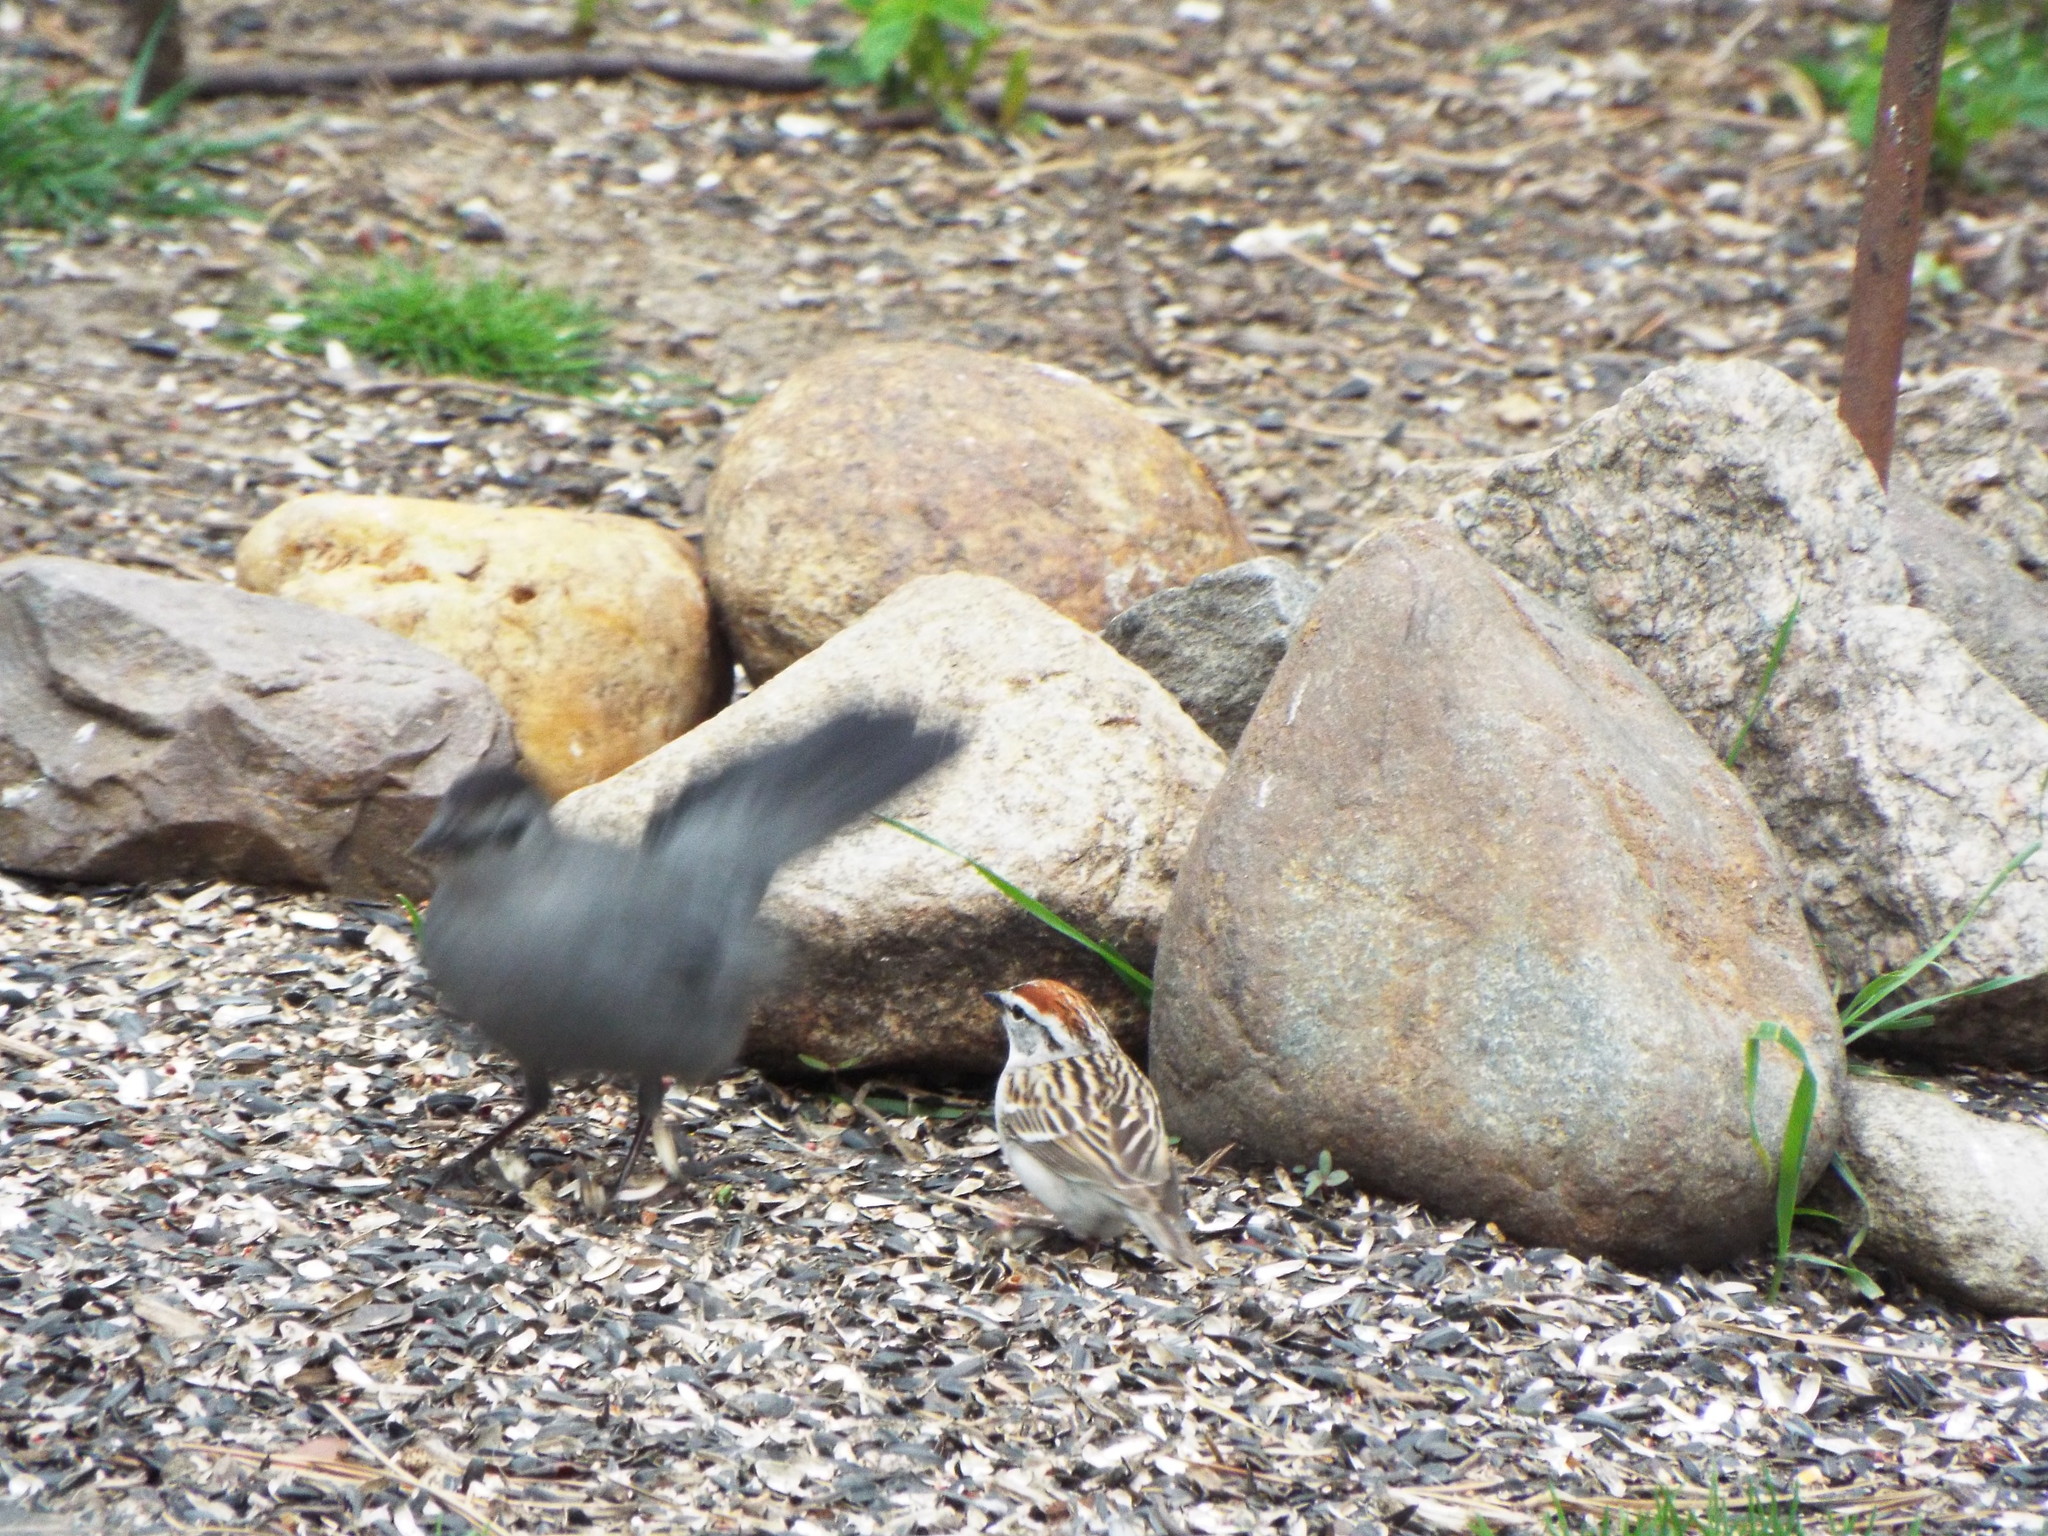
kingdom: Animalia
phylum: Chordata
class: Aves
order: Passeriformes
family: Passerellidae
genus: Spizella
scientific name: Spizella passerina
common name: Chipping sparrow
